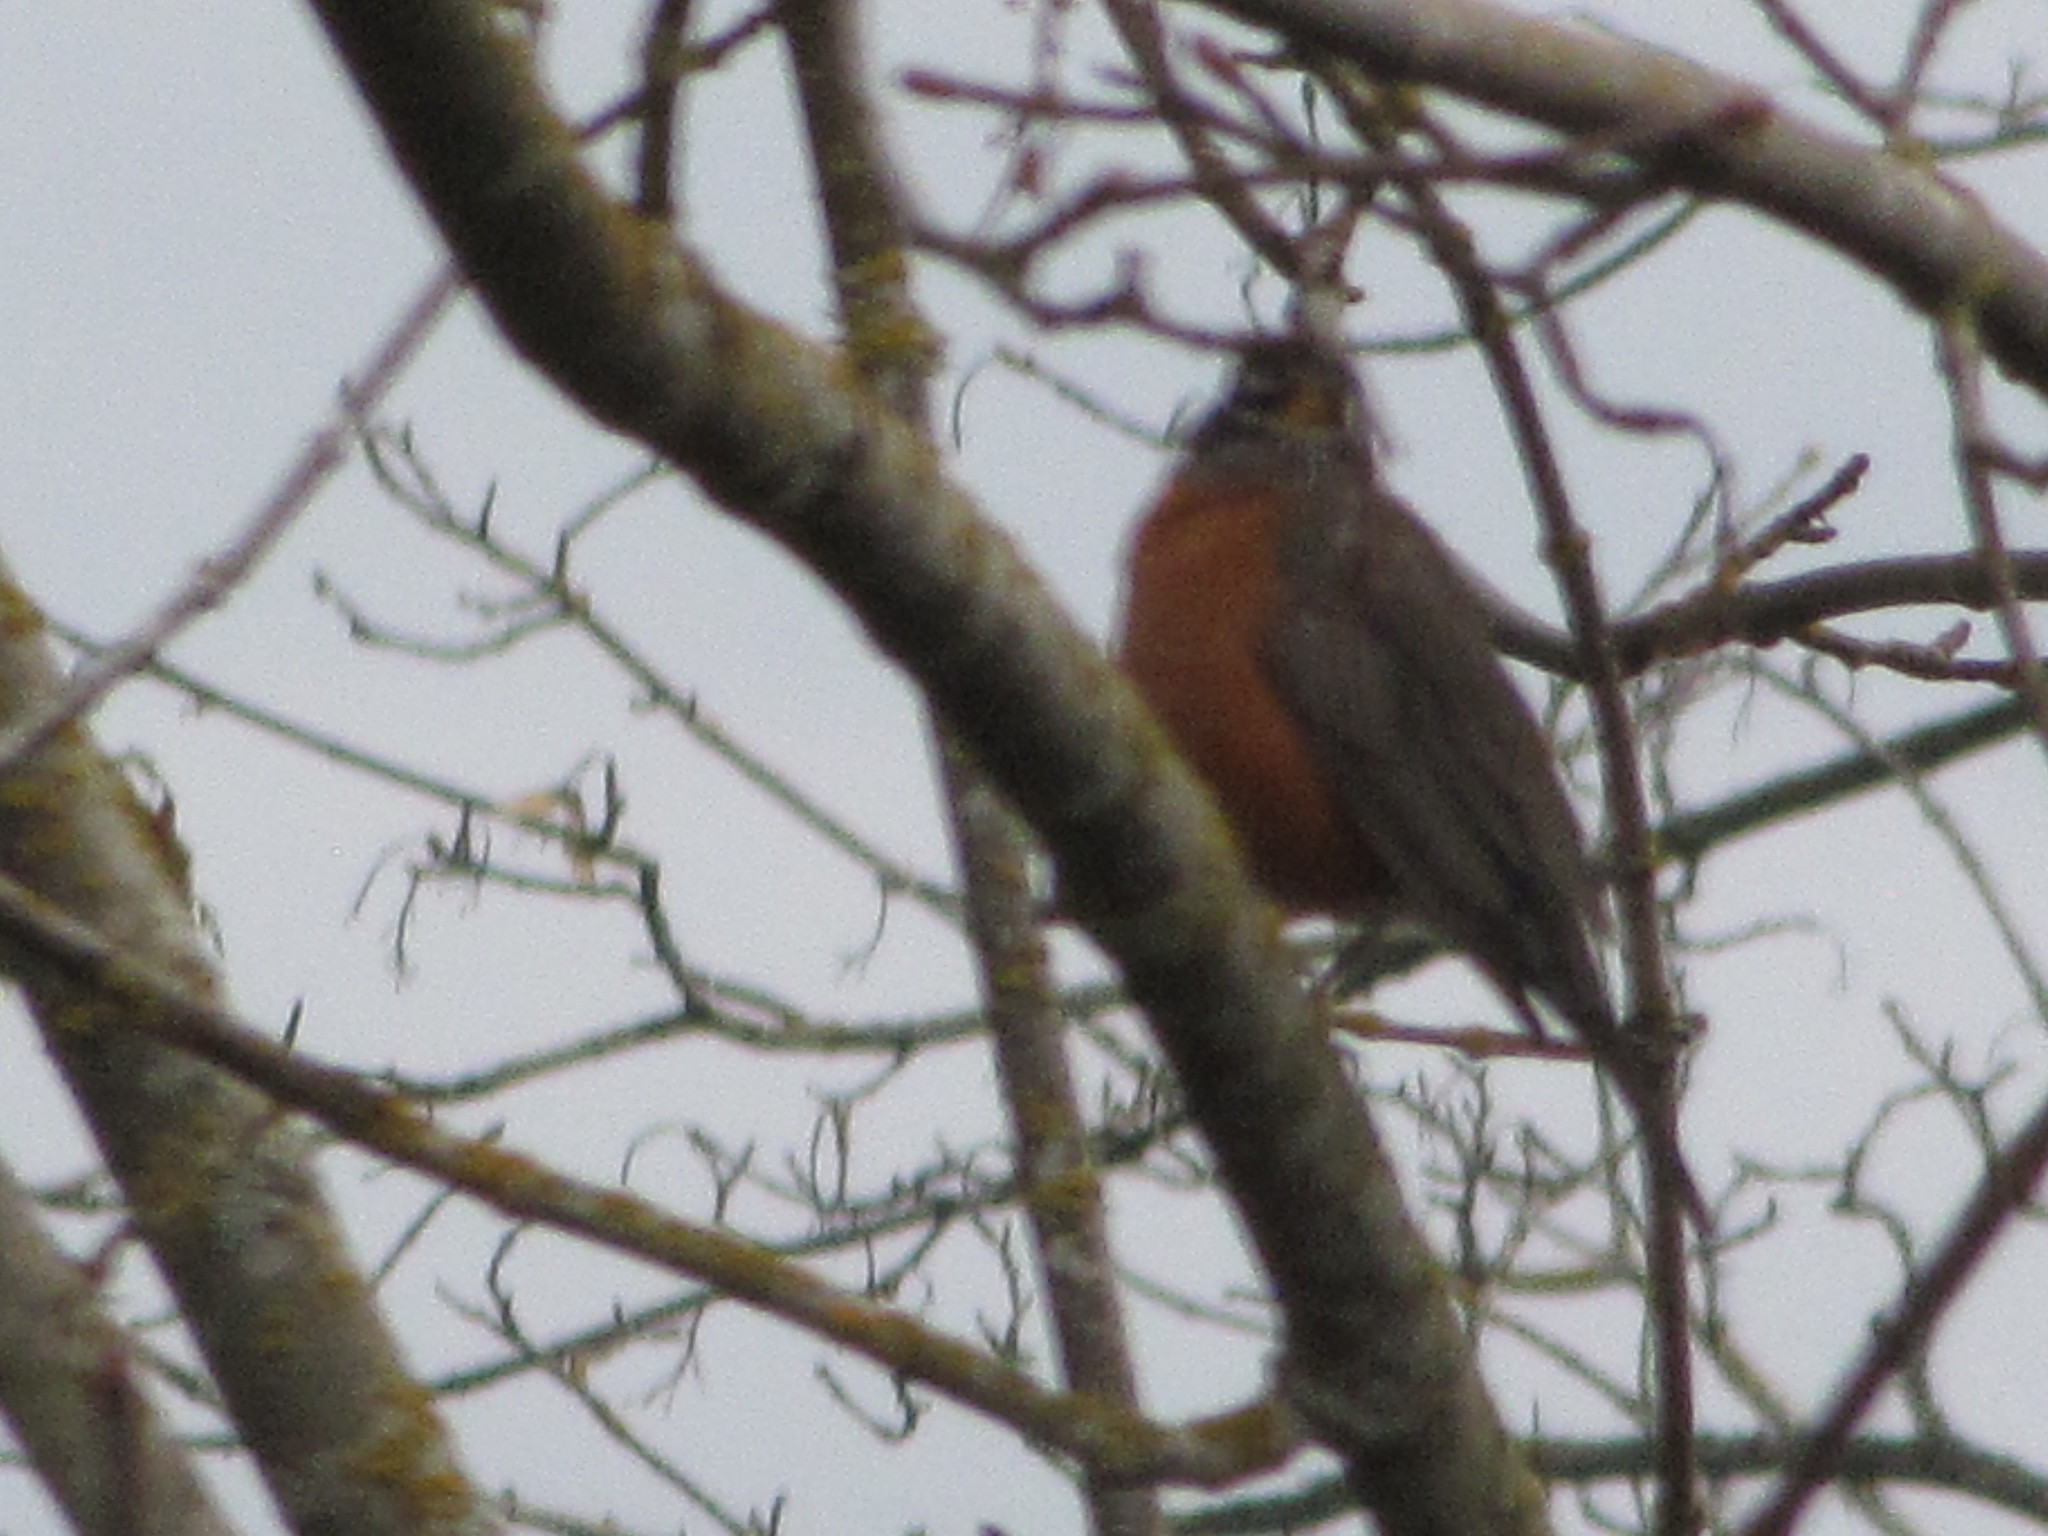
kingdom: Animalia
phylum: Chordata
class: Aves
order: Passeriformes
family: Turdidae
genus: Turdus
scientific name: Turdus migratorius
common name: American robin
